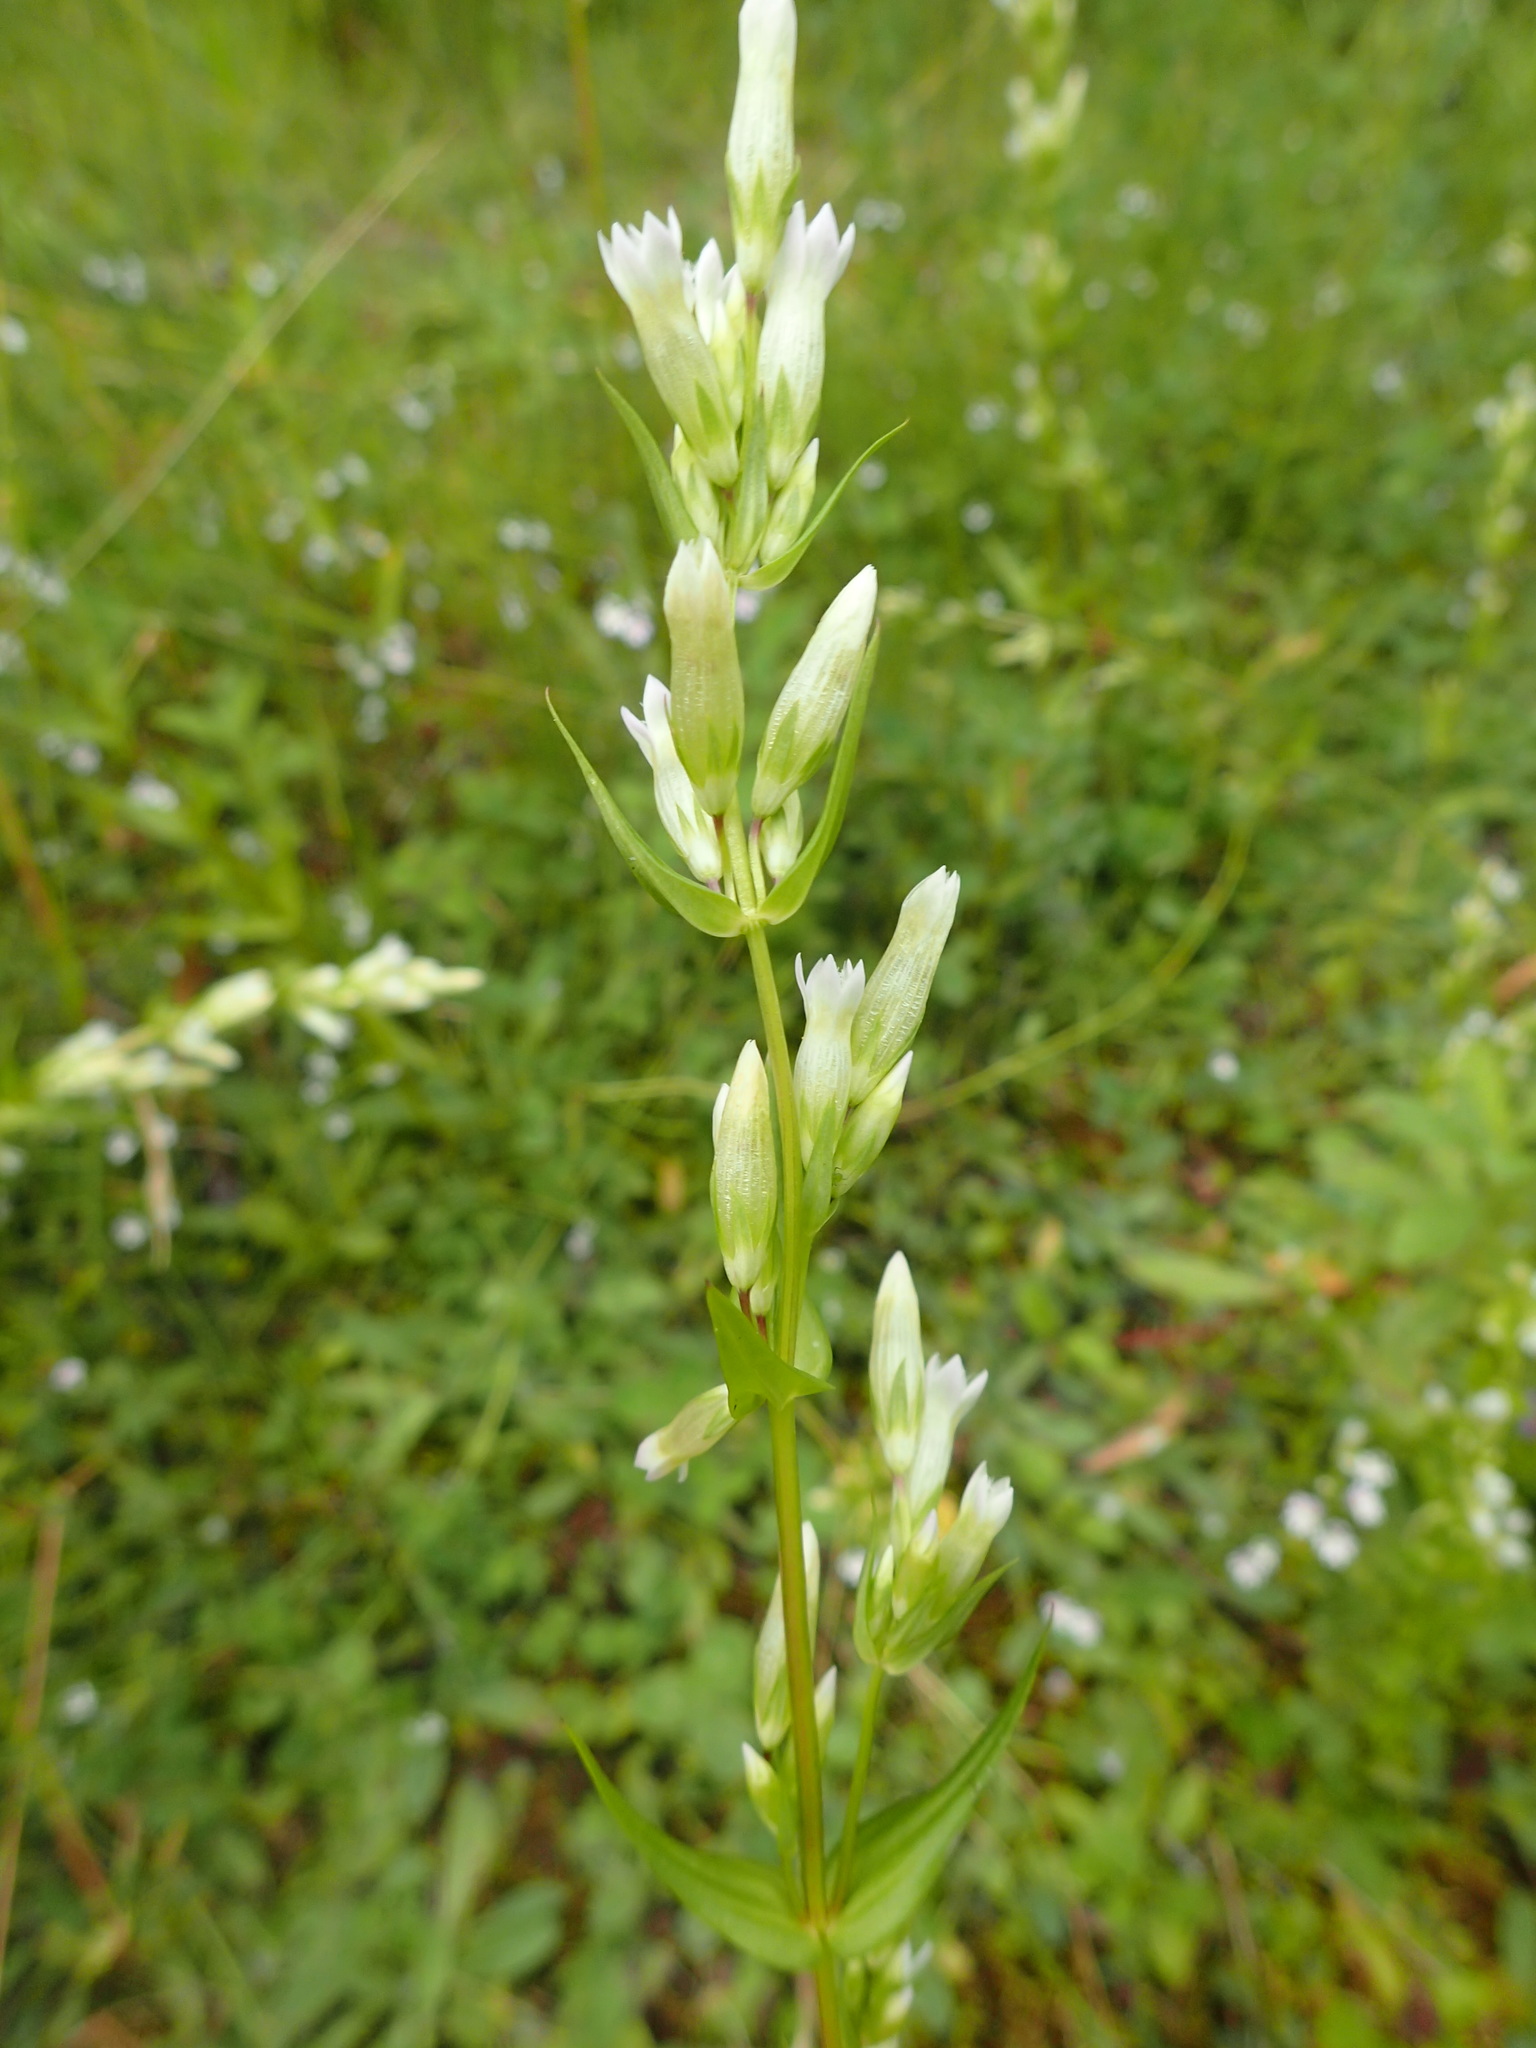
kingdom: Plantae
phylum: Tracheophyta
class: Magnoliopsida
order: Gentianales
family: Gentianaceae
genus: Gentianella
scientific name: Gentianella amarella
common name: Autumn gentian
